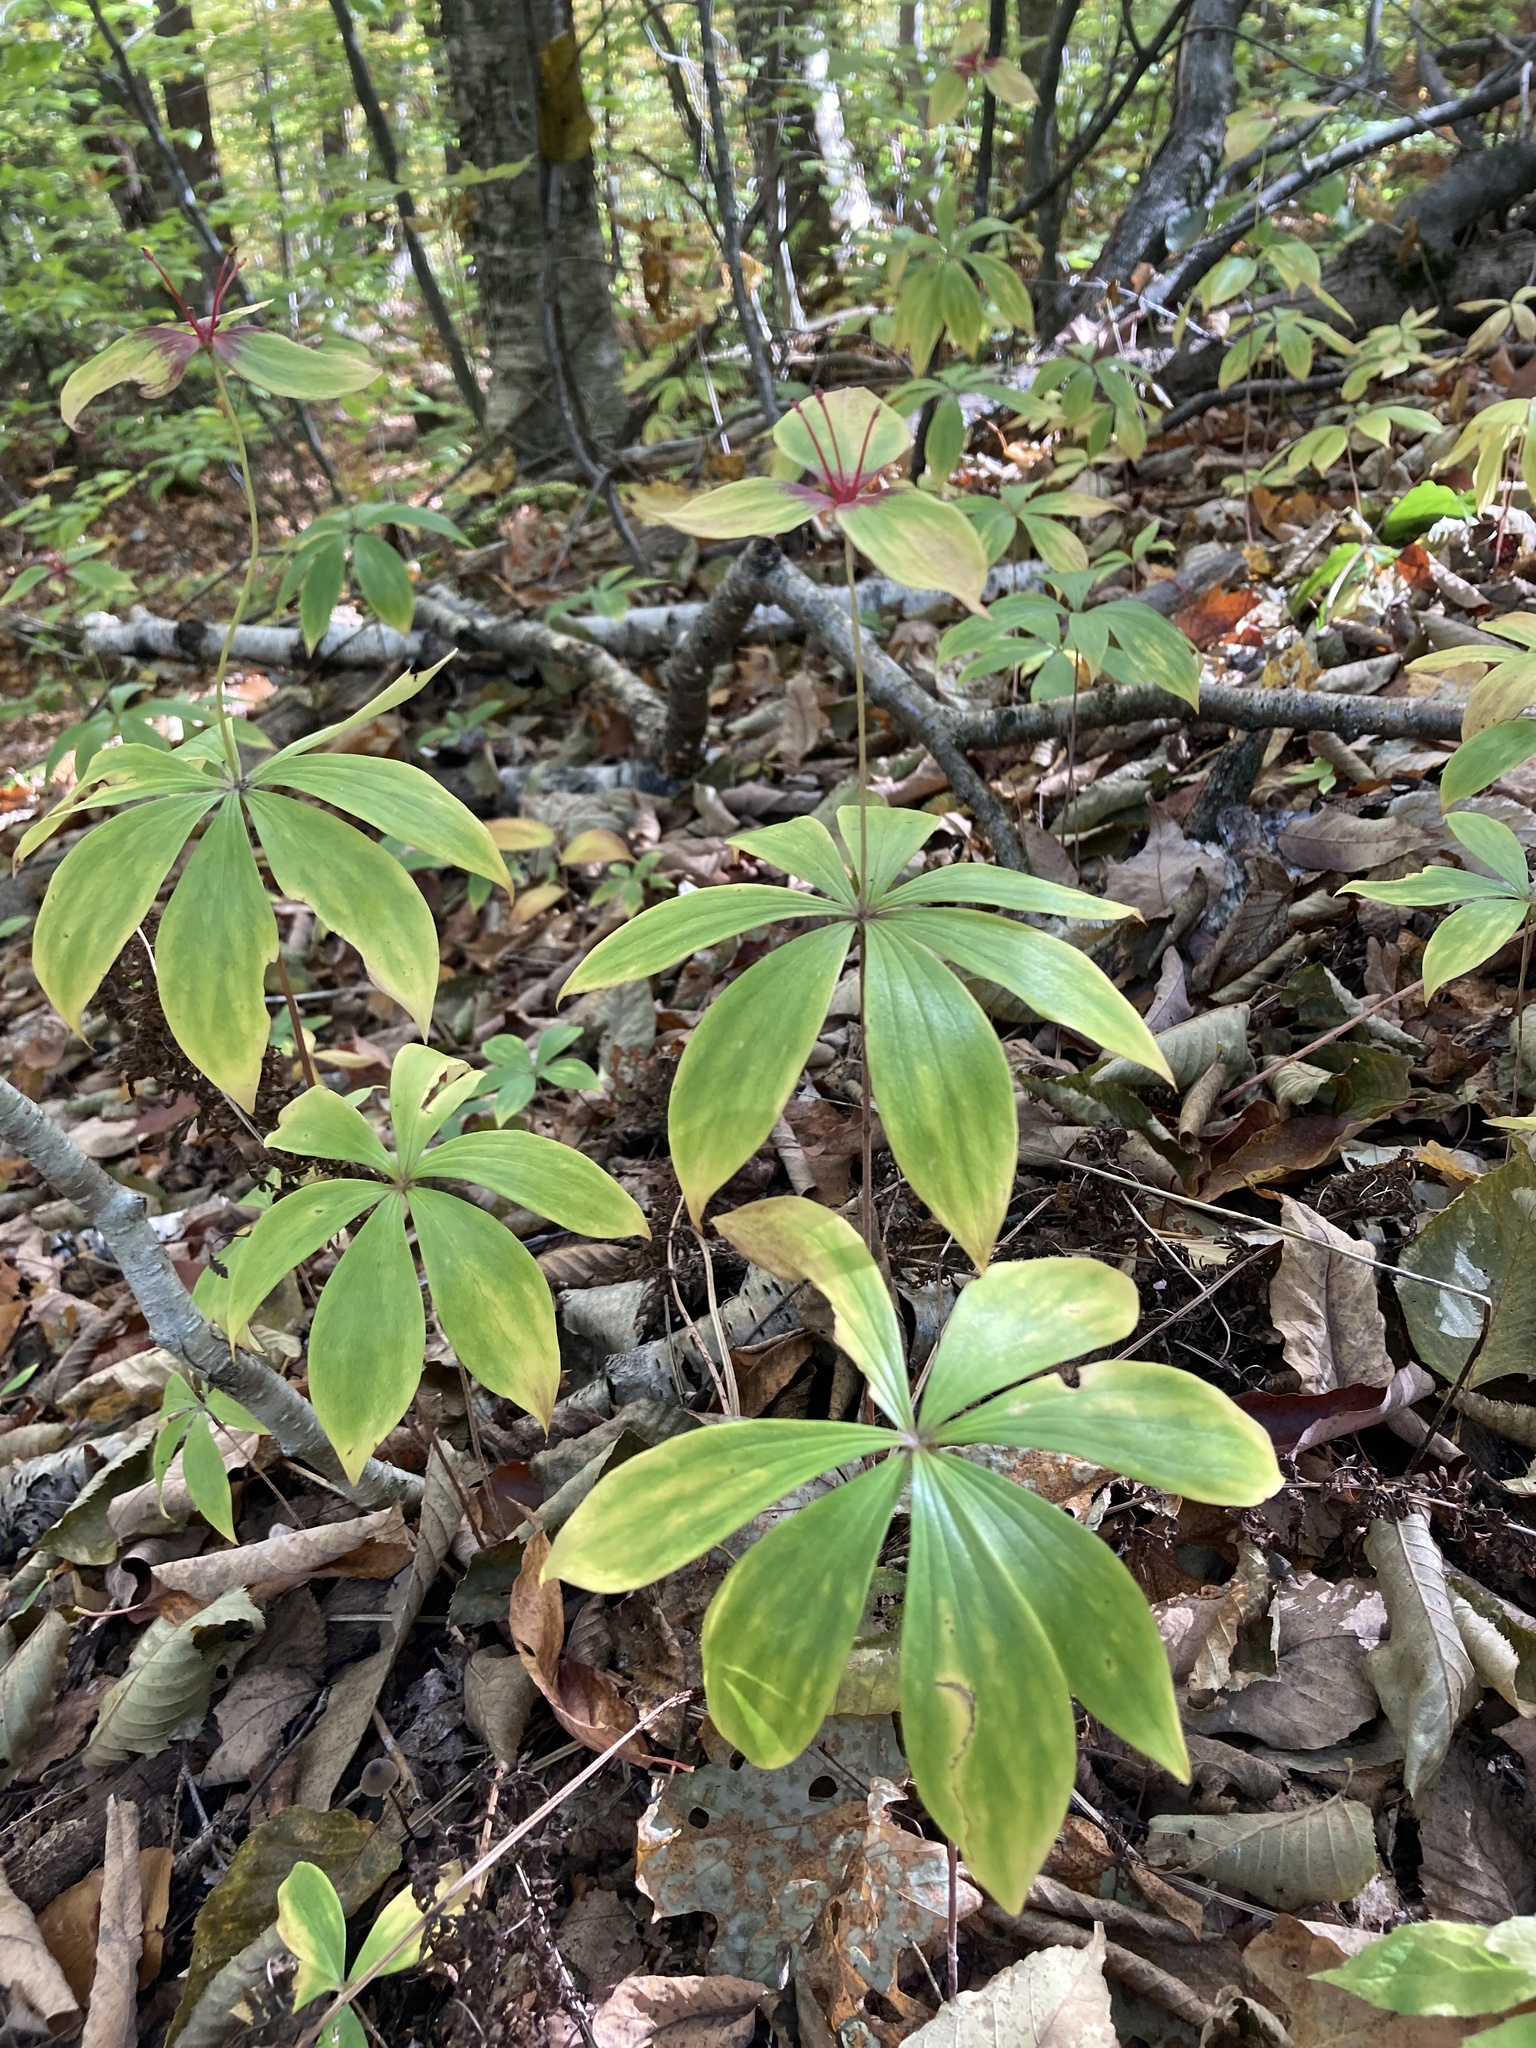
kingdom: Plantae
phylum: Tracheophyta
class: Liliopsida
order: Liliales
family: Liliaceae
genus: Medeola
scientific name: Medeola virginiana
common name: Indian cucumber-root
